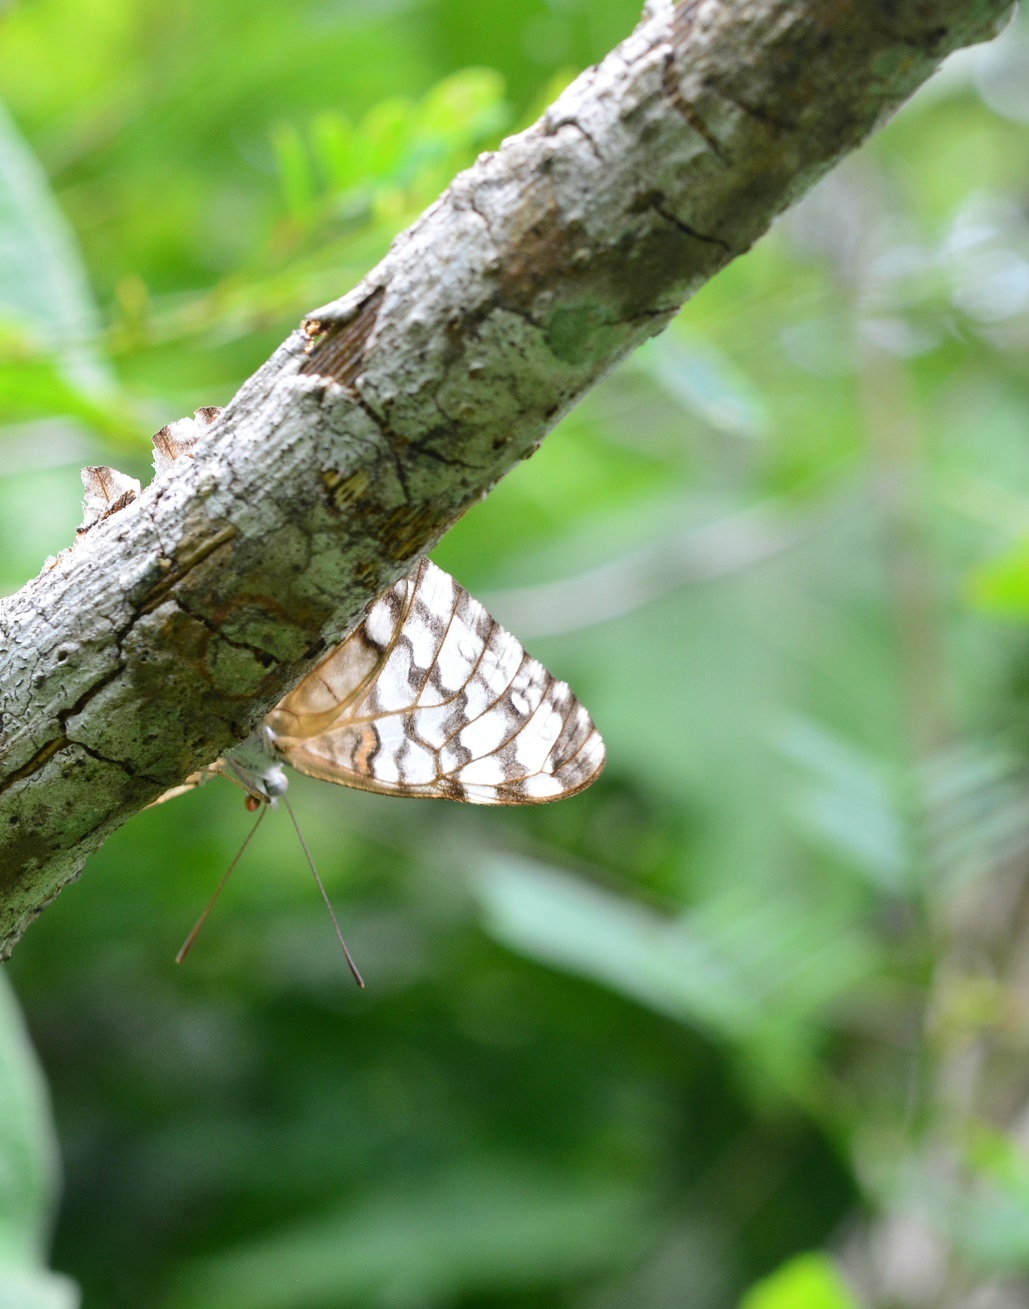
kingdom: Animalia
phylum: Arthropoda
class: Insecta
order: Lepidoptera
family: Nymphalidae
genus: Hamadryas
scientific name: Hamadryas februa
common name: Gray cracker
